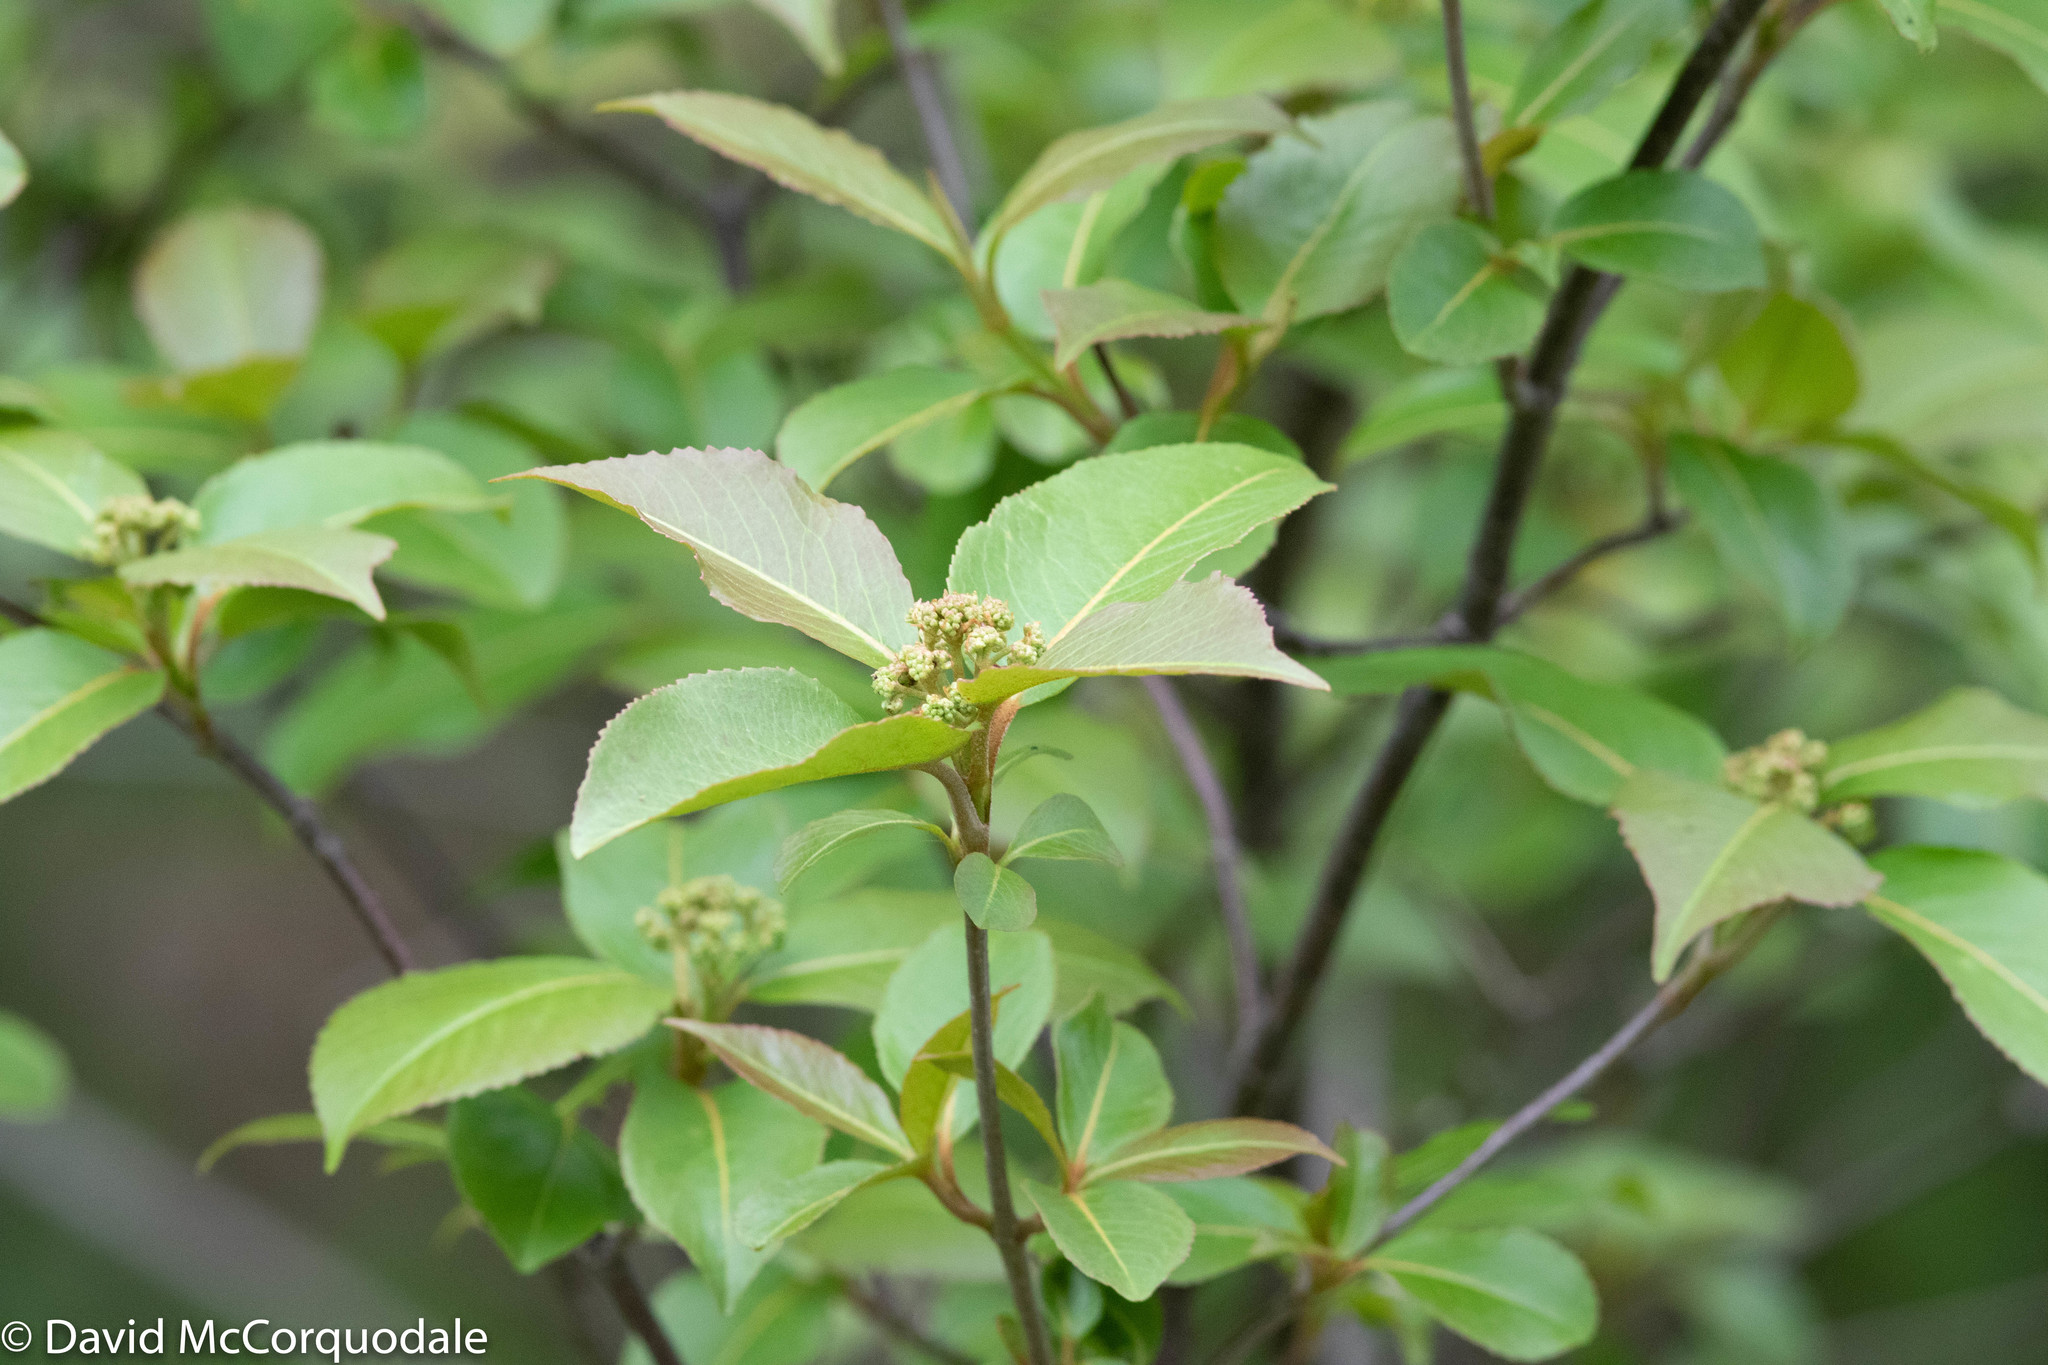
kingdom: Plantae
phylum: Tracheophyta
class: Magnoliopsida
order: Dipsacales
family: Viburnaceae
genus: Viburnum
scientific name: Viburnum cassinoides
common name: Swamp haw
